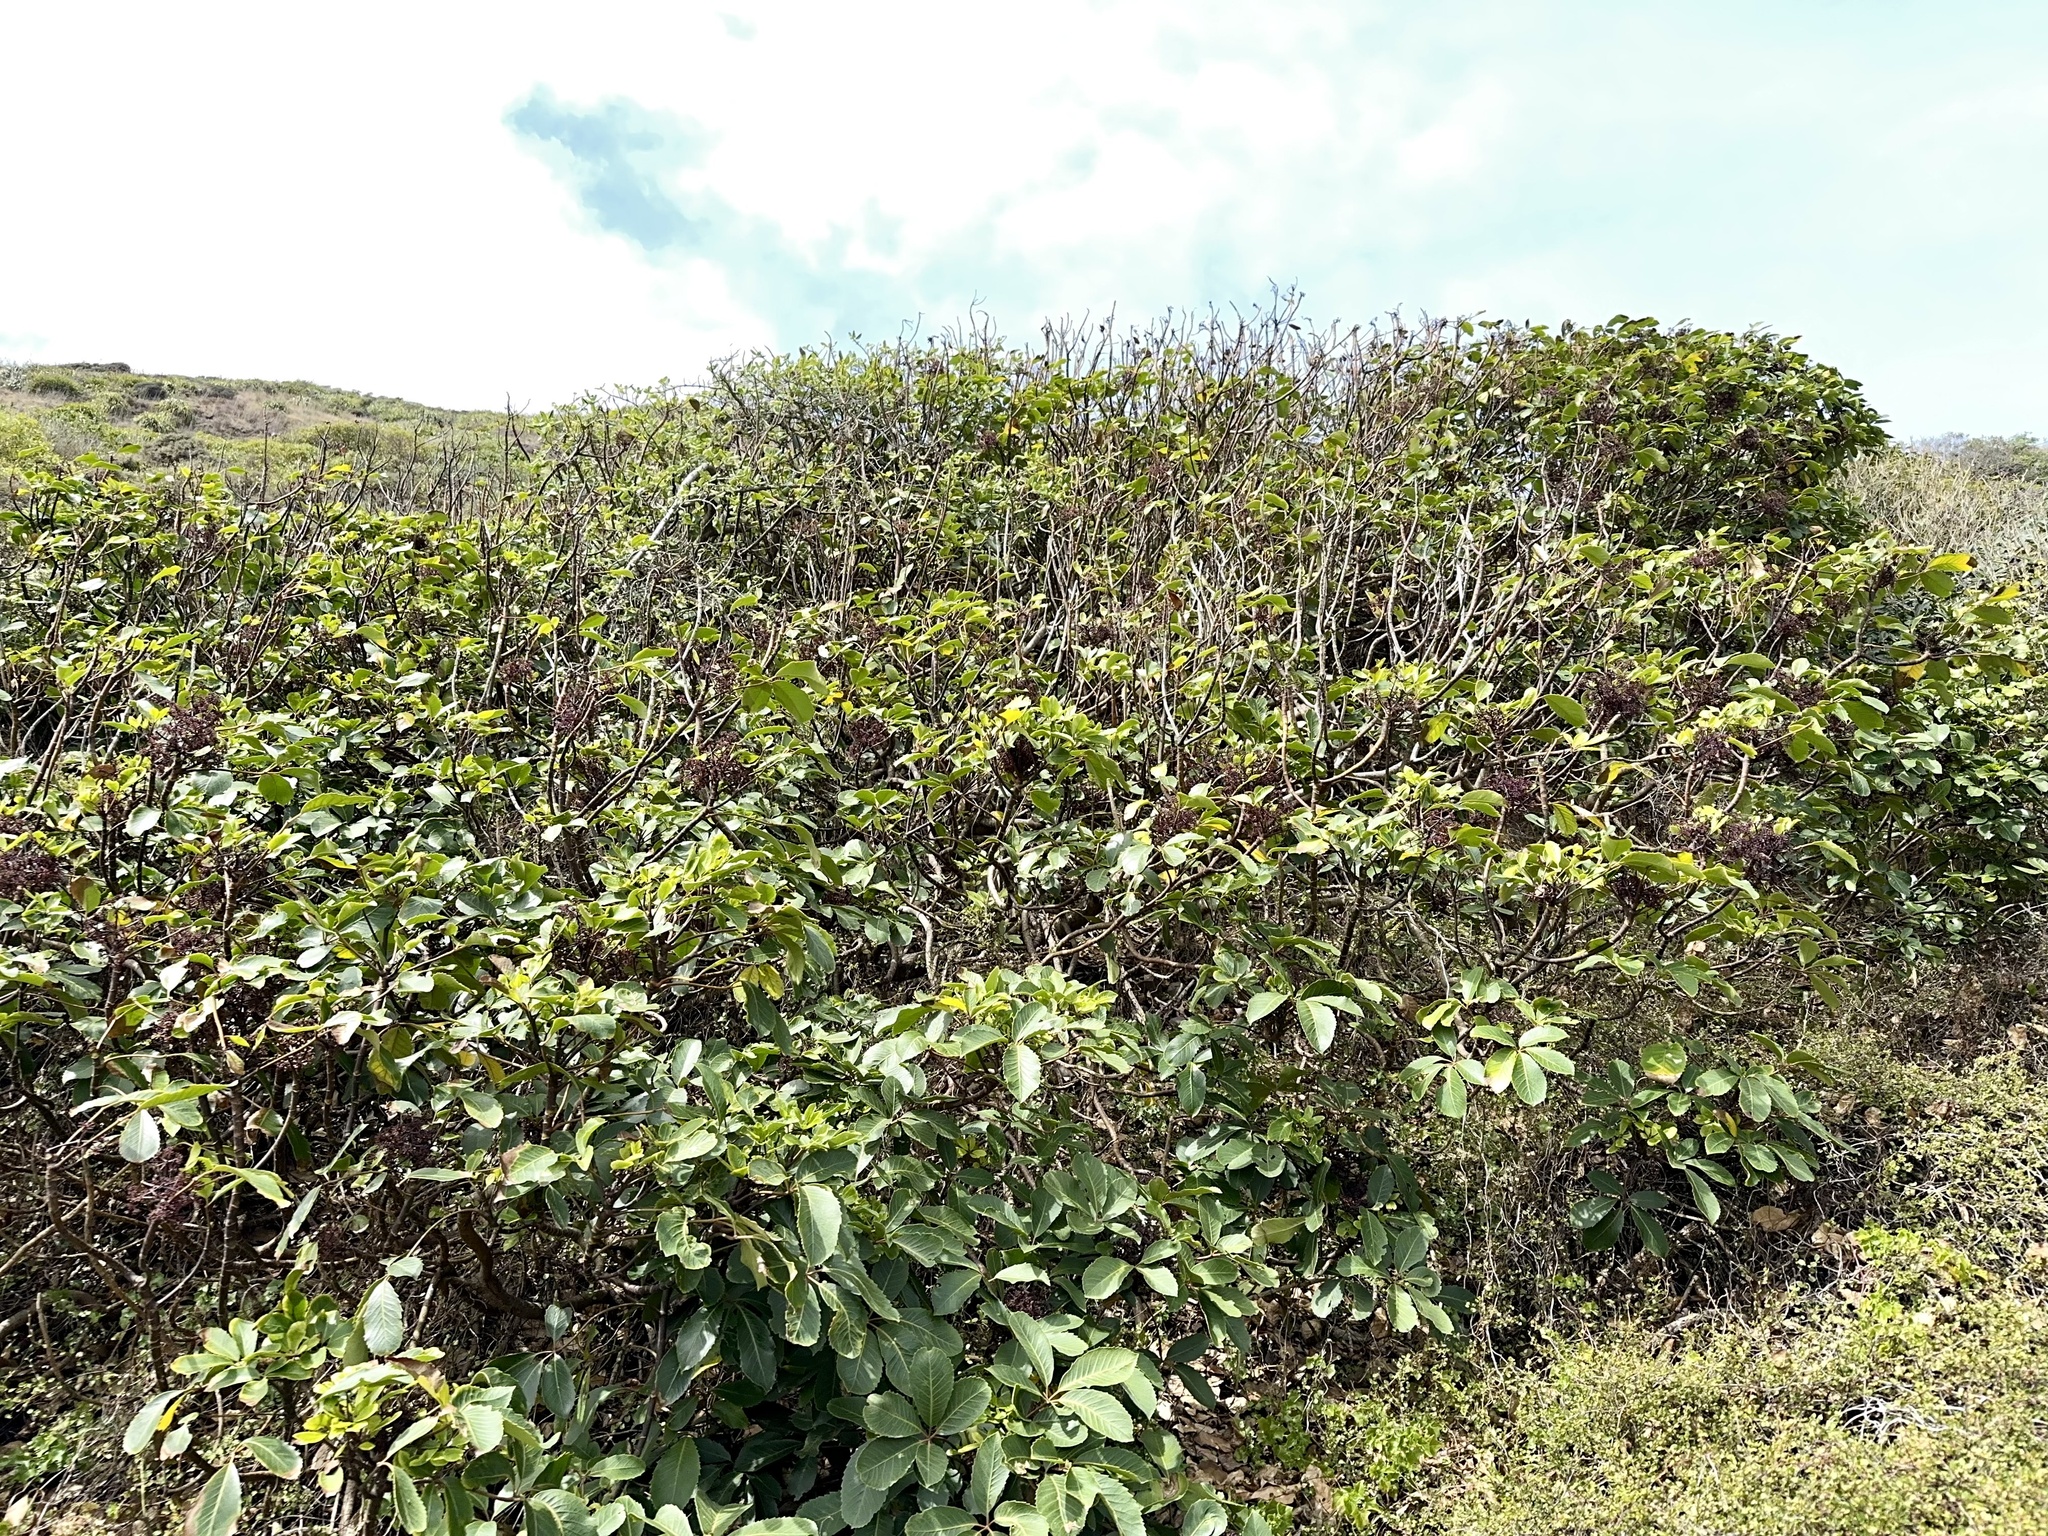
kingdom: Plantae
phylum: Tracheophyta
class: Magnoliopsida
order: Apiales
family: Araliaceae
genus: Neopanax
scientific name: Neopanax arboreus
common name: Five-fingers
